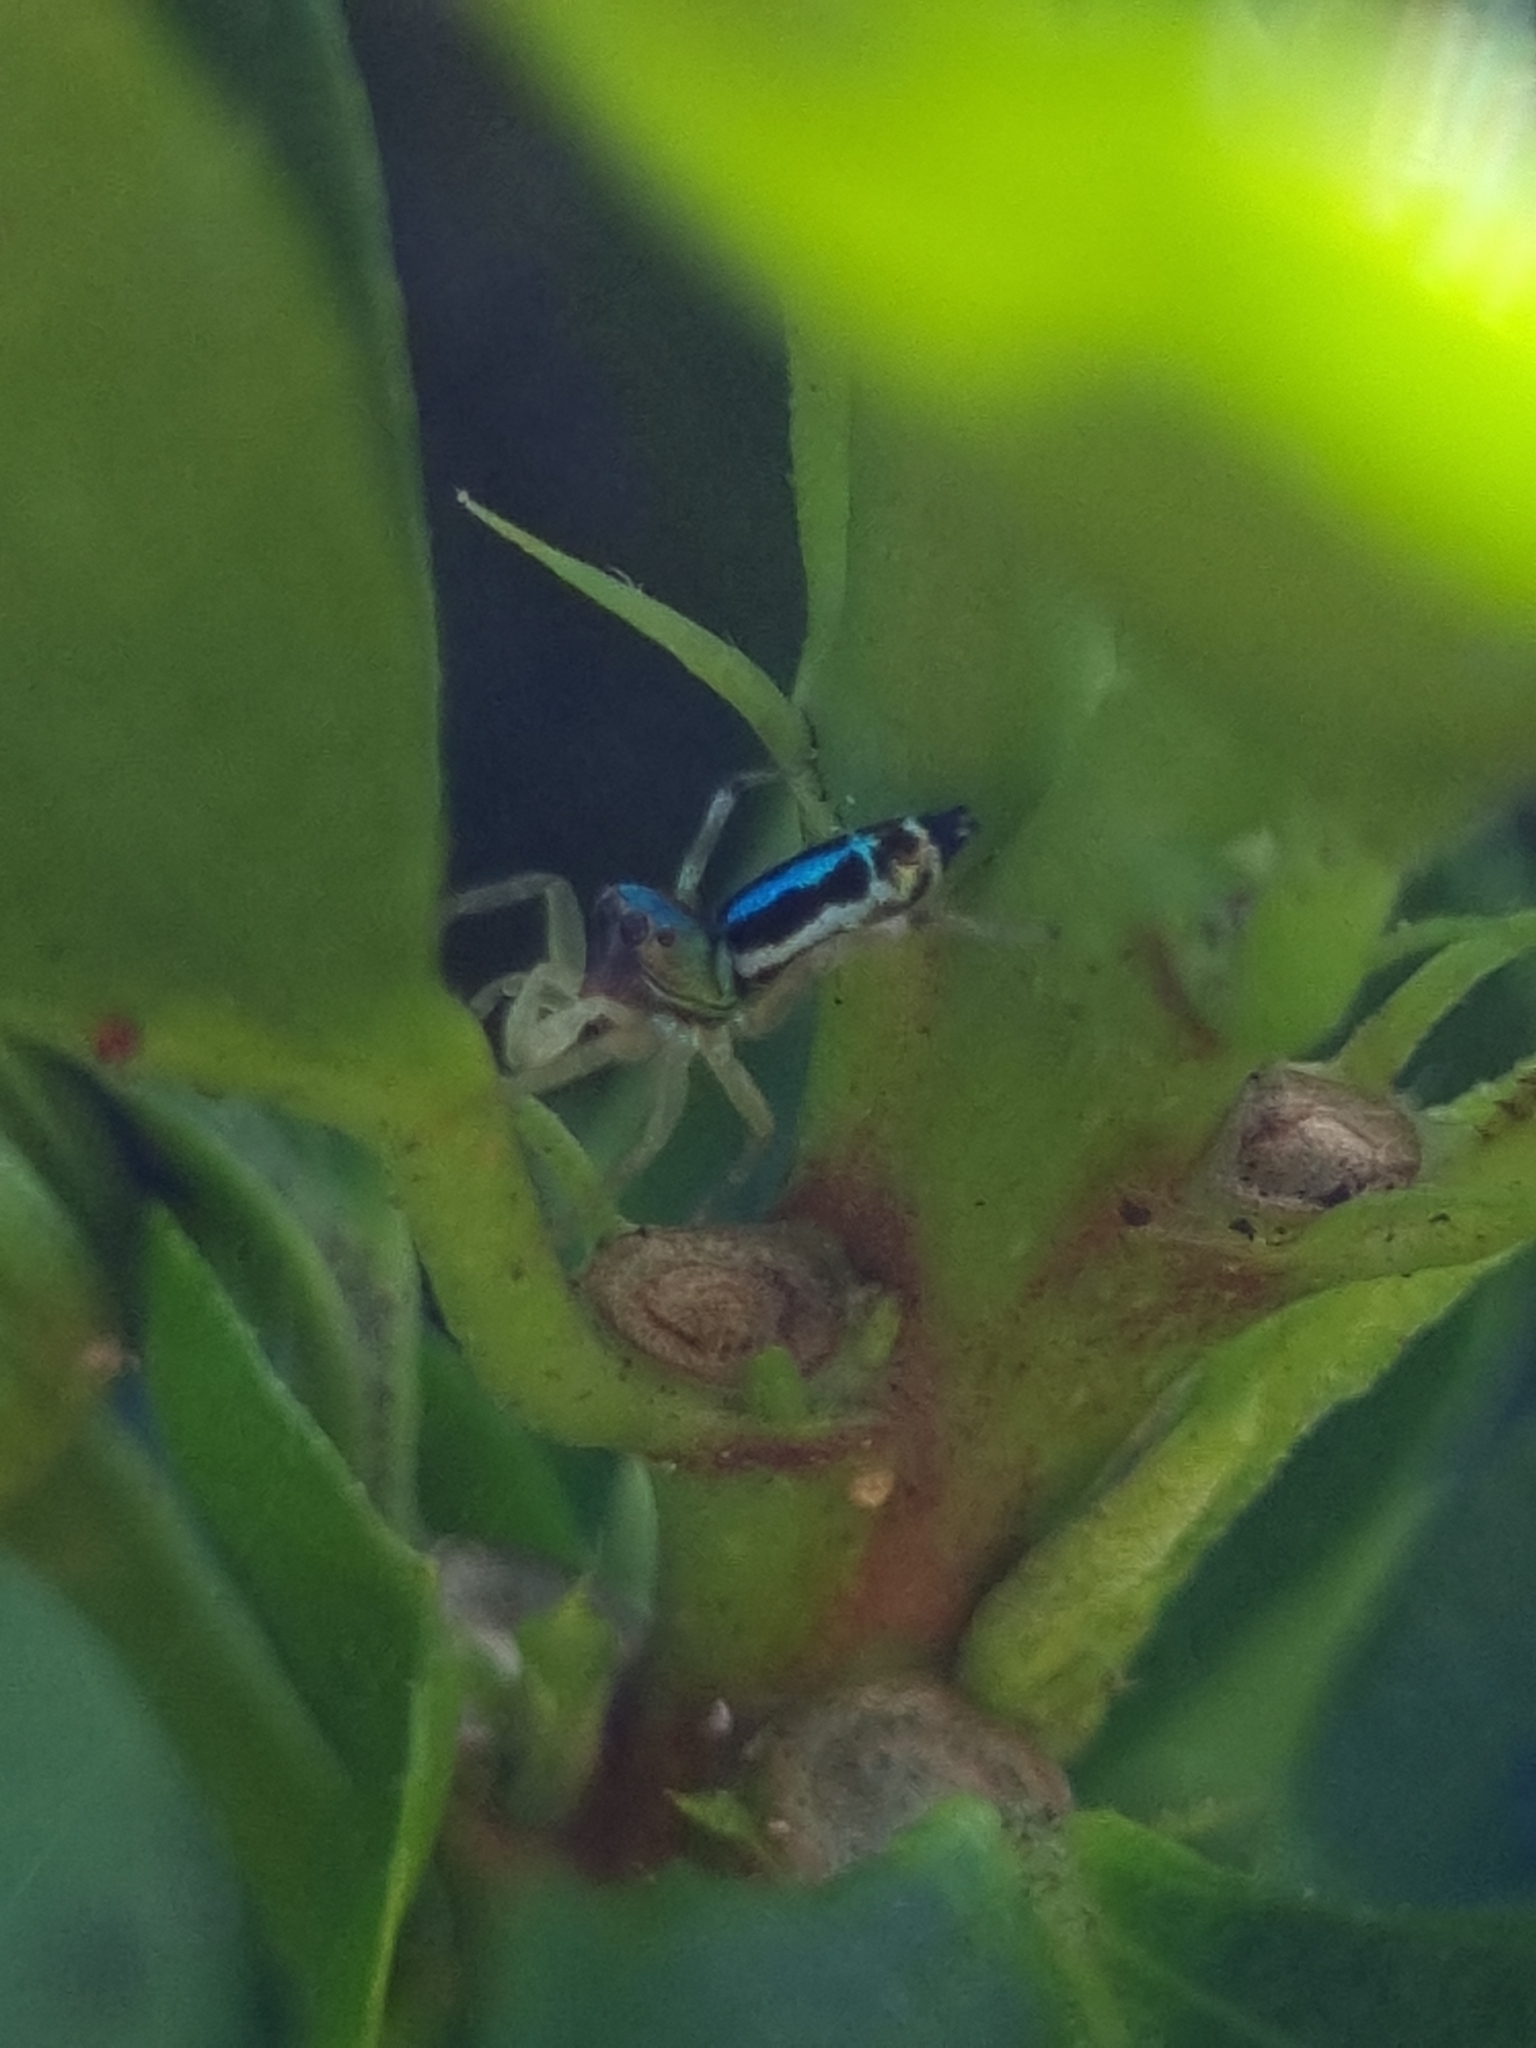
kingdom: Animalia
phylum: Arthropoda
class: Arachnida
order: Araneae
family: Salticidae
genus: Cosmophasis
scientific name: Cosmophasis thalassina
